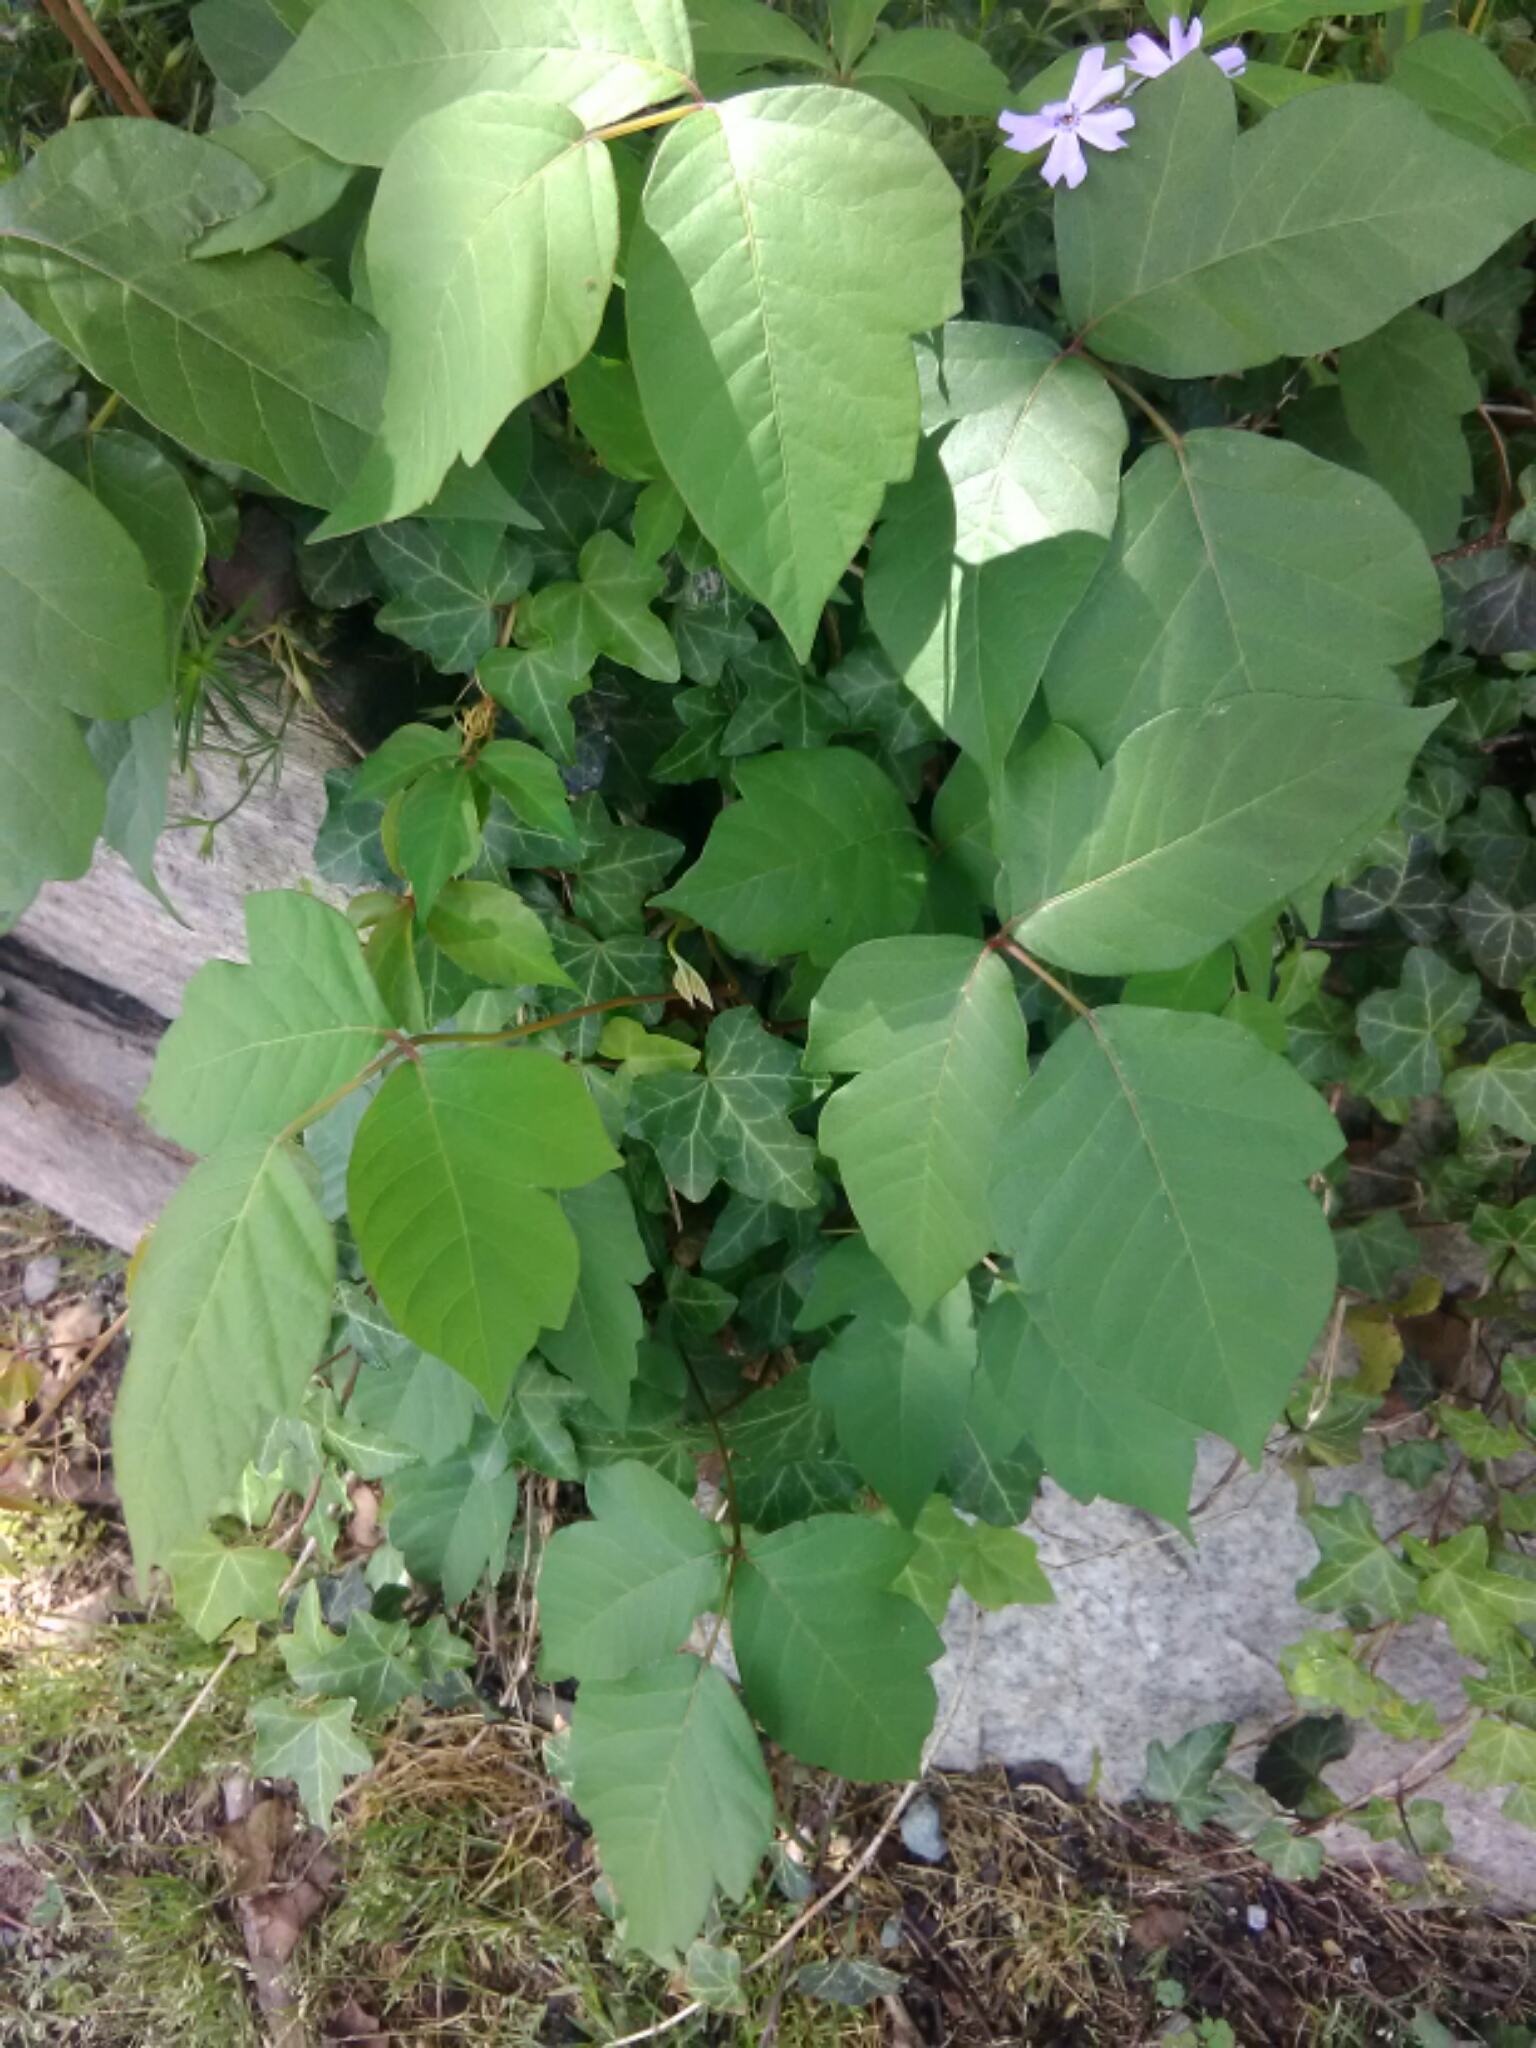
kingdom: Plantae
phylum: Tracheophyta
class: Magnoliopsida
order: Sapindales
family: Anacardiaceae
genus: Toxicodendron
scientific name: Toxicodendron radicans
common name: Poison ivy
